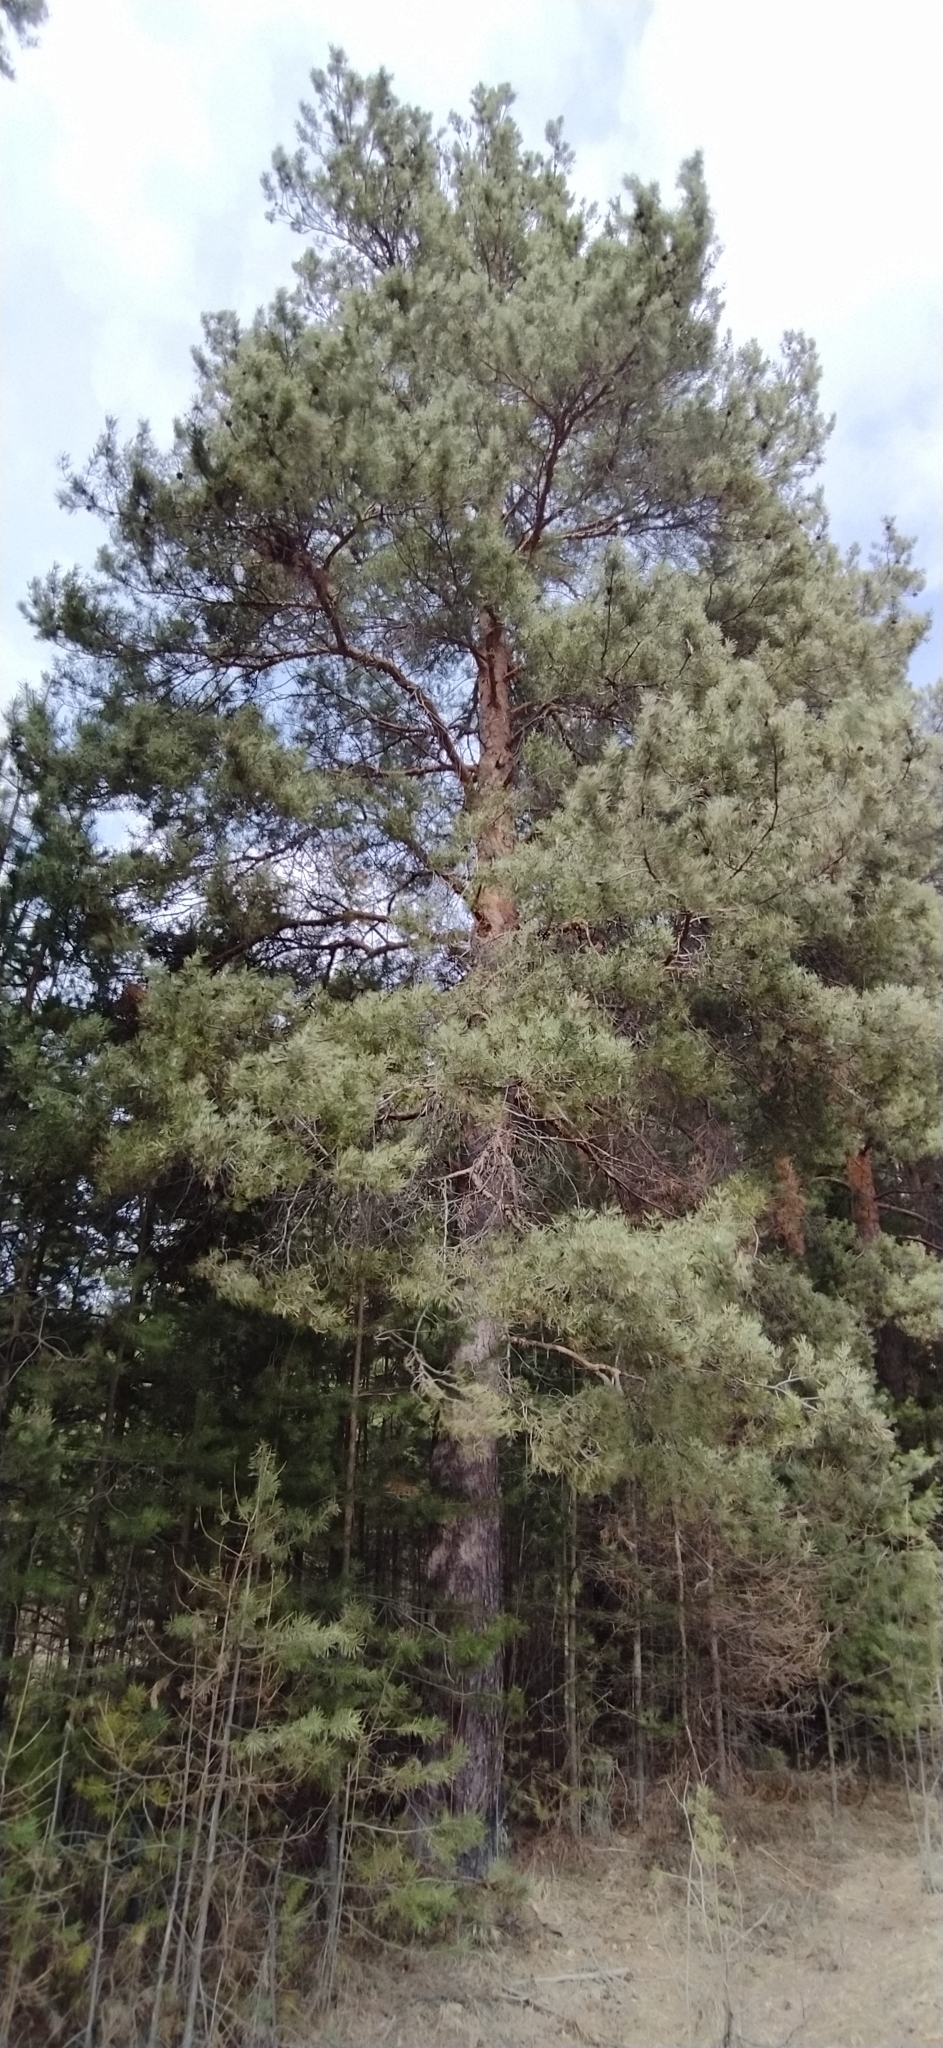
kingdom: Plantae
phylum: Tracheophyta
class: Pinopsida
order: Pinales
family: Pinaceae
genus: Pinus
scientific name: Pinus sylvestris
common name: Scots pine
